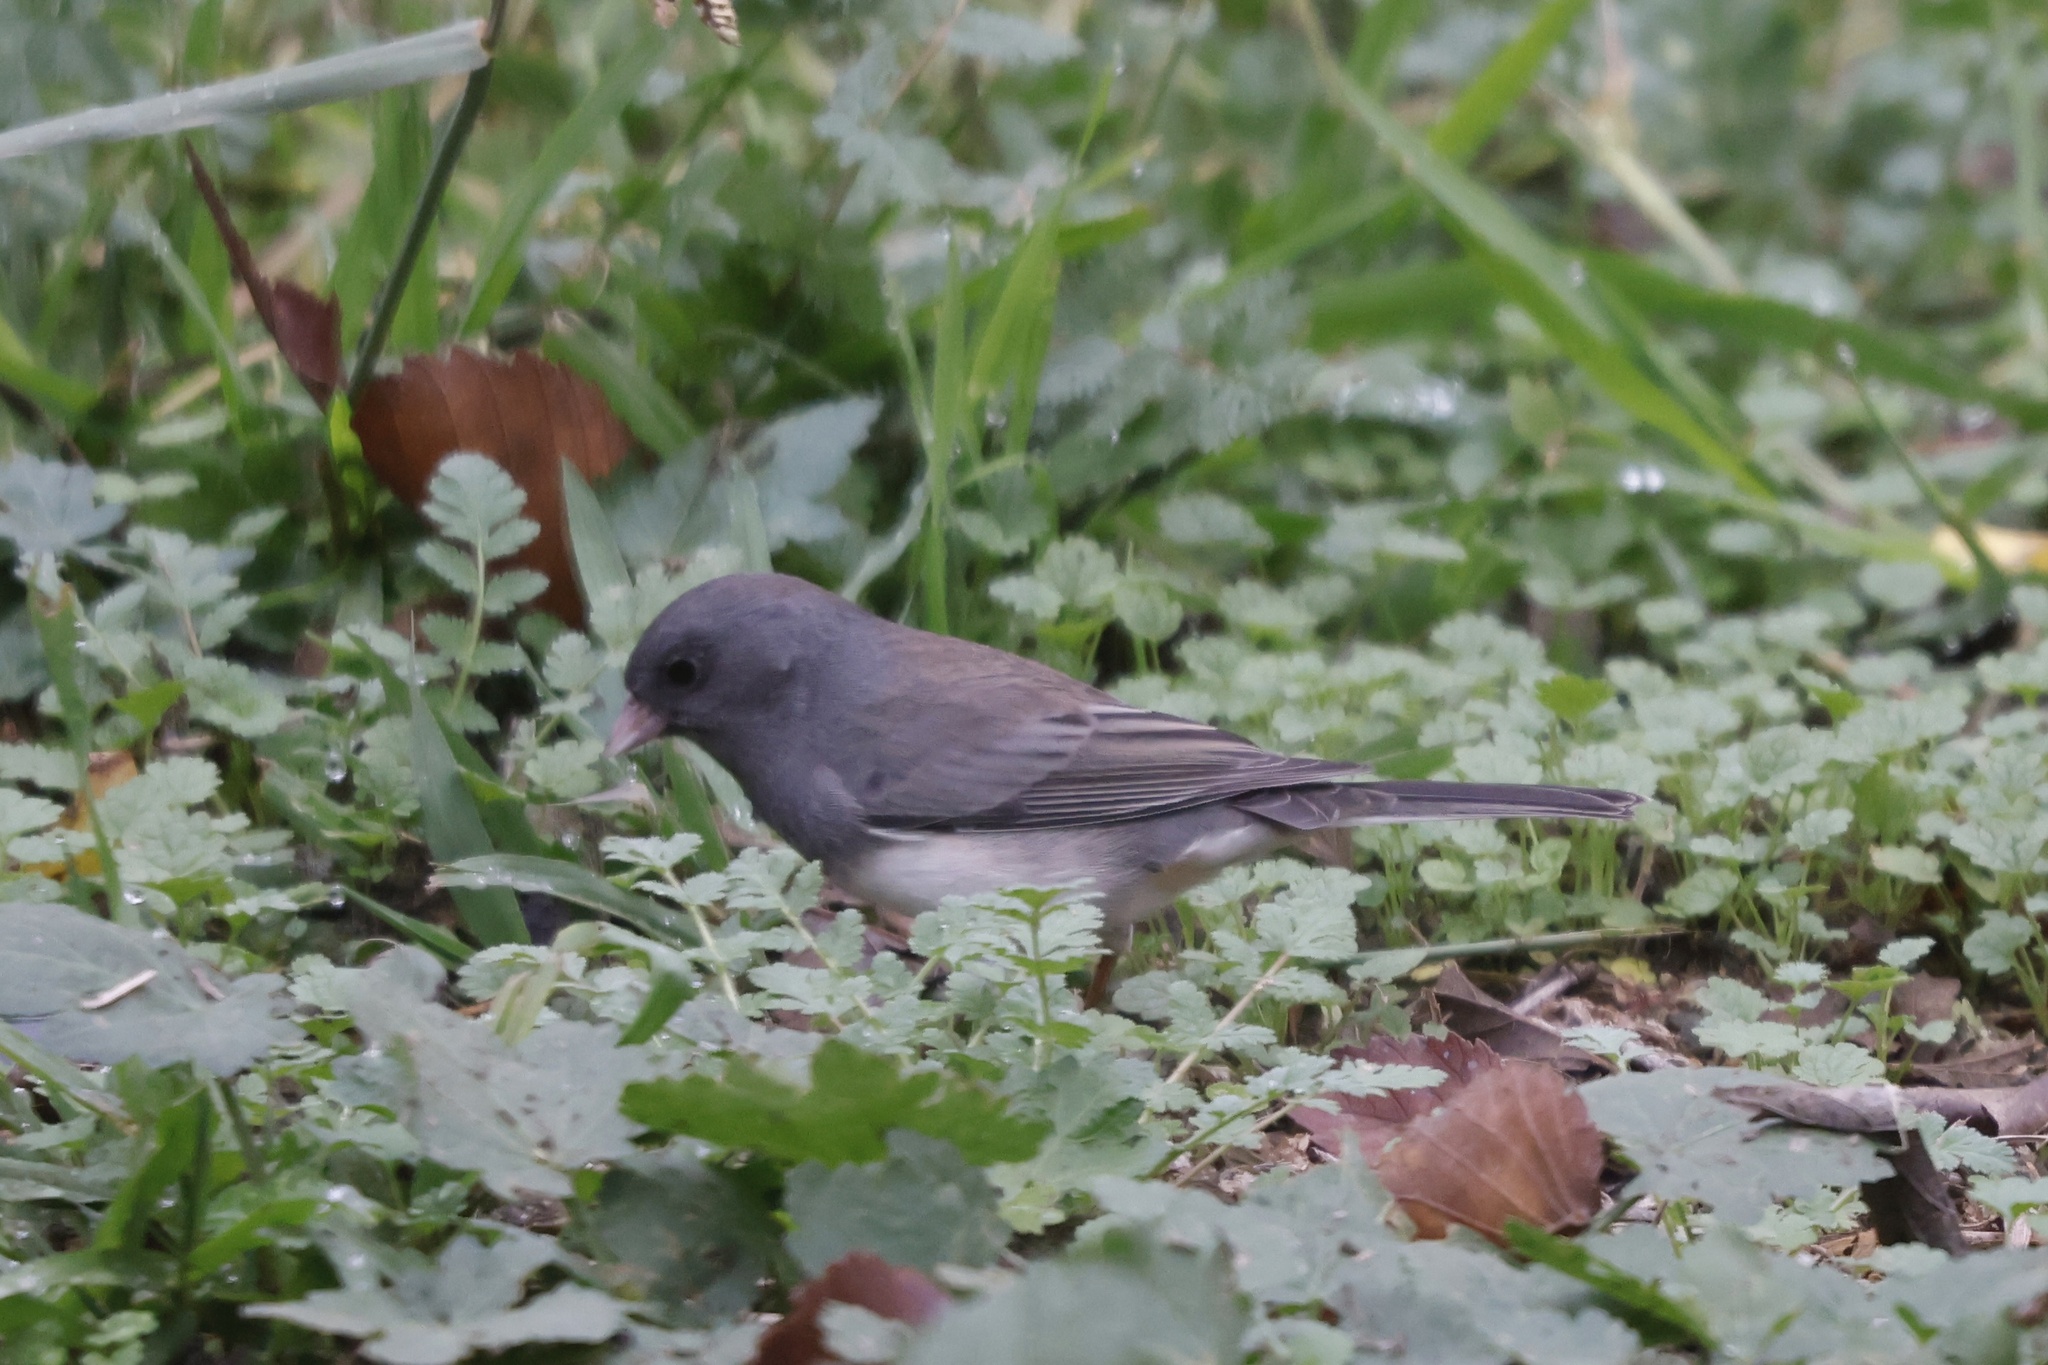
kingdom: Animalia
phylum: Chordata
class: Aves
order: Passeriformes
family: Passerellidae
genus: Junco
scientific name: Junco hyemalis
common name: Dark-eyed junco
